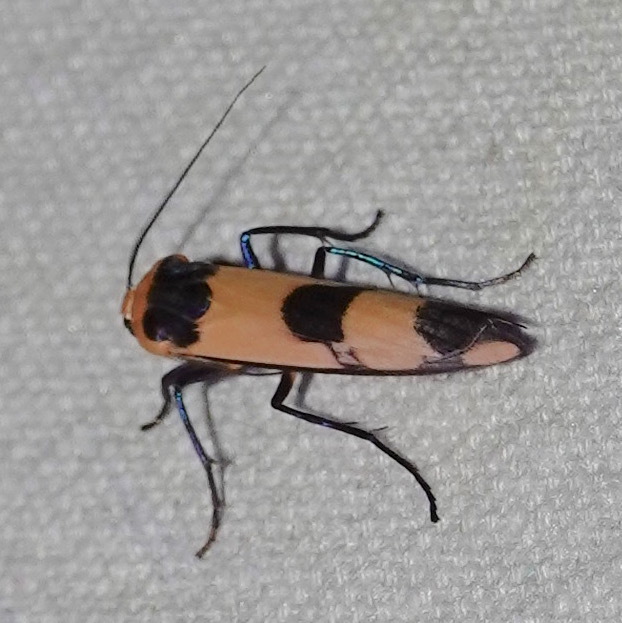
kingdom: Animalia
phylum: Arthropoda
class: Insecta
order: Lepidoptera
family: Erebidae
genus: Oeonistis
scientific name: Oeonistis altica
